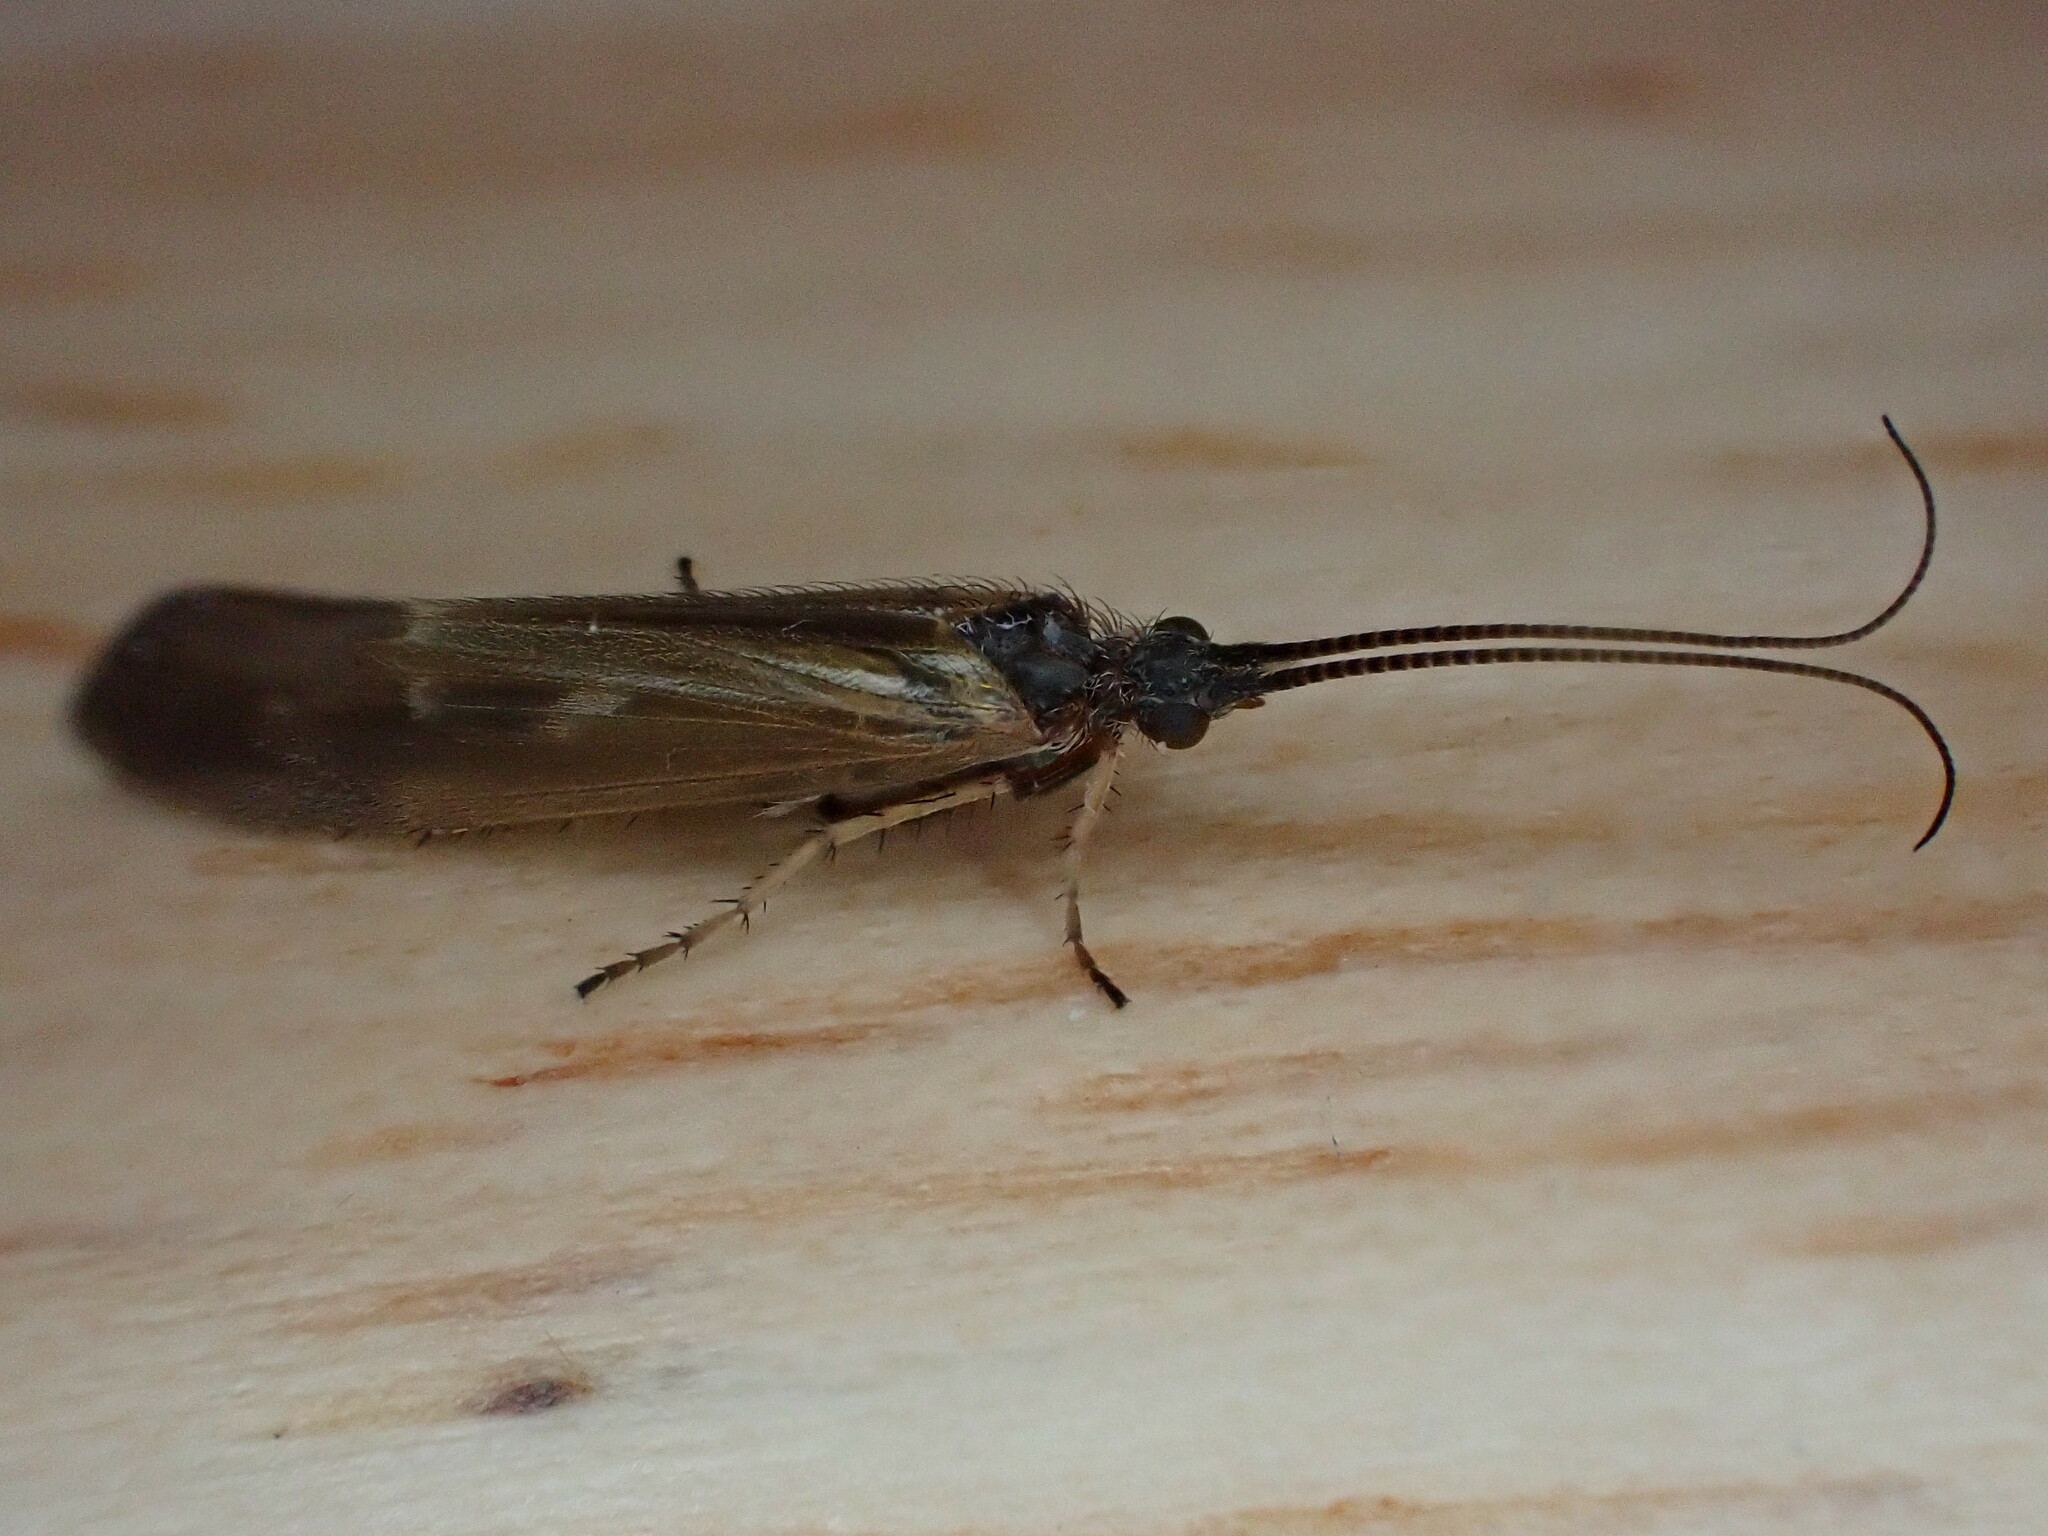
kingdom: Animalia
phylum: Arthropoda
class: Insecta
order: Trichoptera
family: Limnephilidae
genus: Limnephilus
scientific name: Limnephilus auricula
